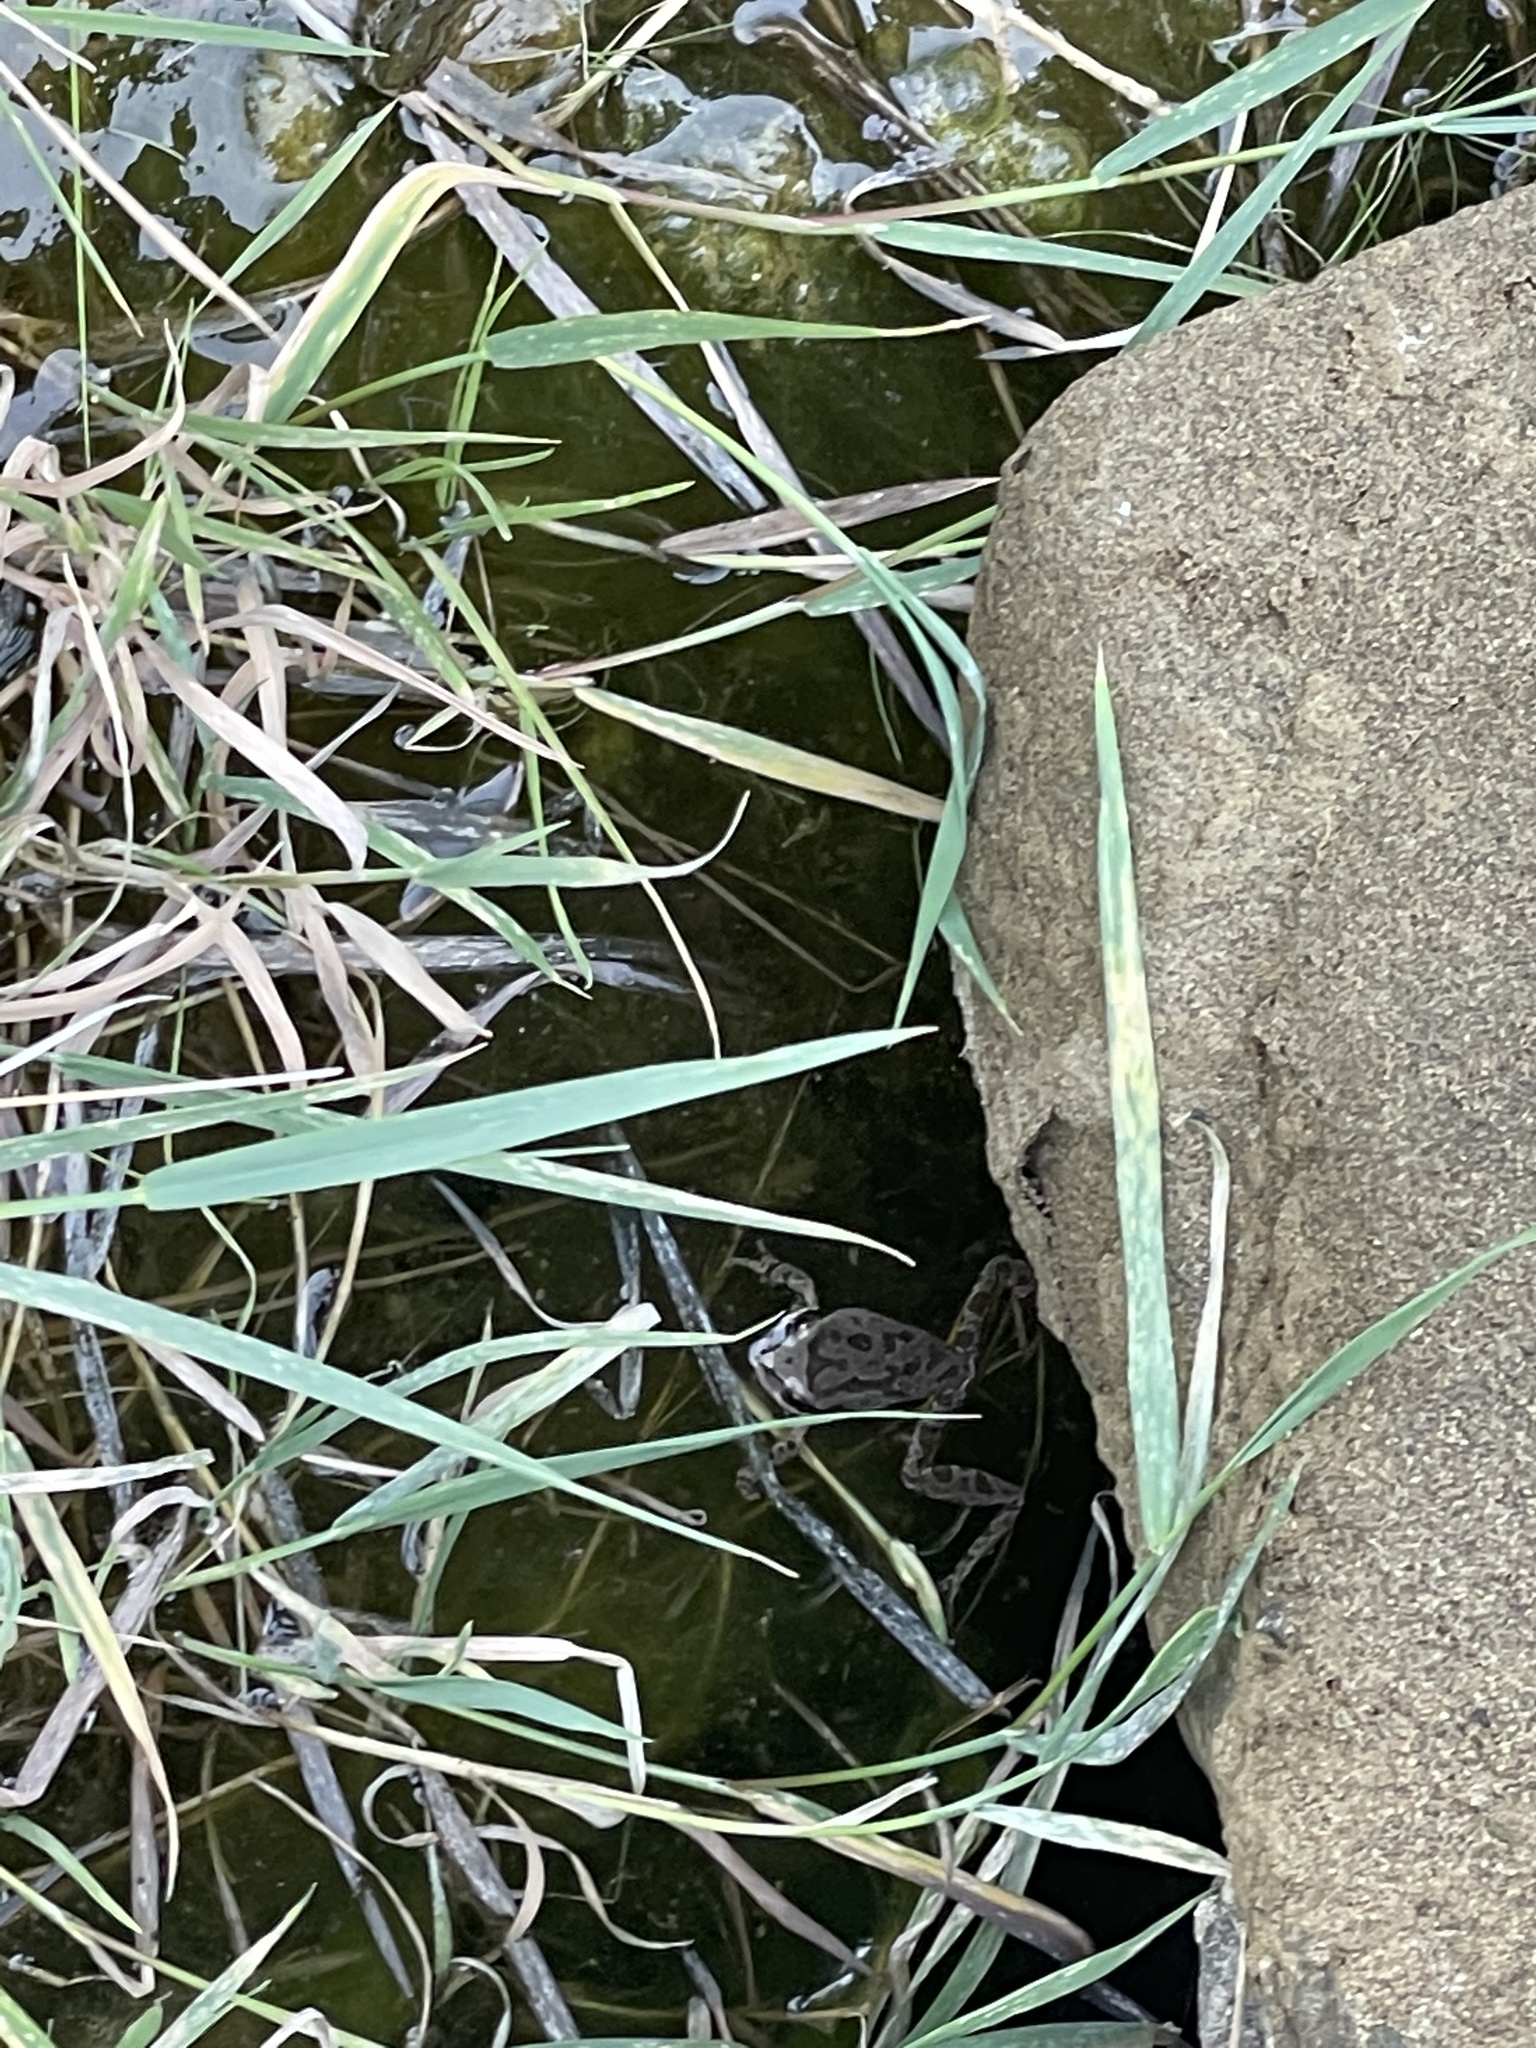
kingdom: Animalia
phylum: Chordata
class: Amphibia
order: Anura
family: Hylidae
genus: Pseudacris
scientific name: Pseudacris regilla
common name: Pacific chorus frog
